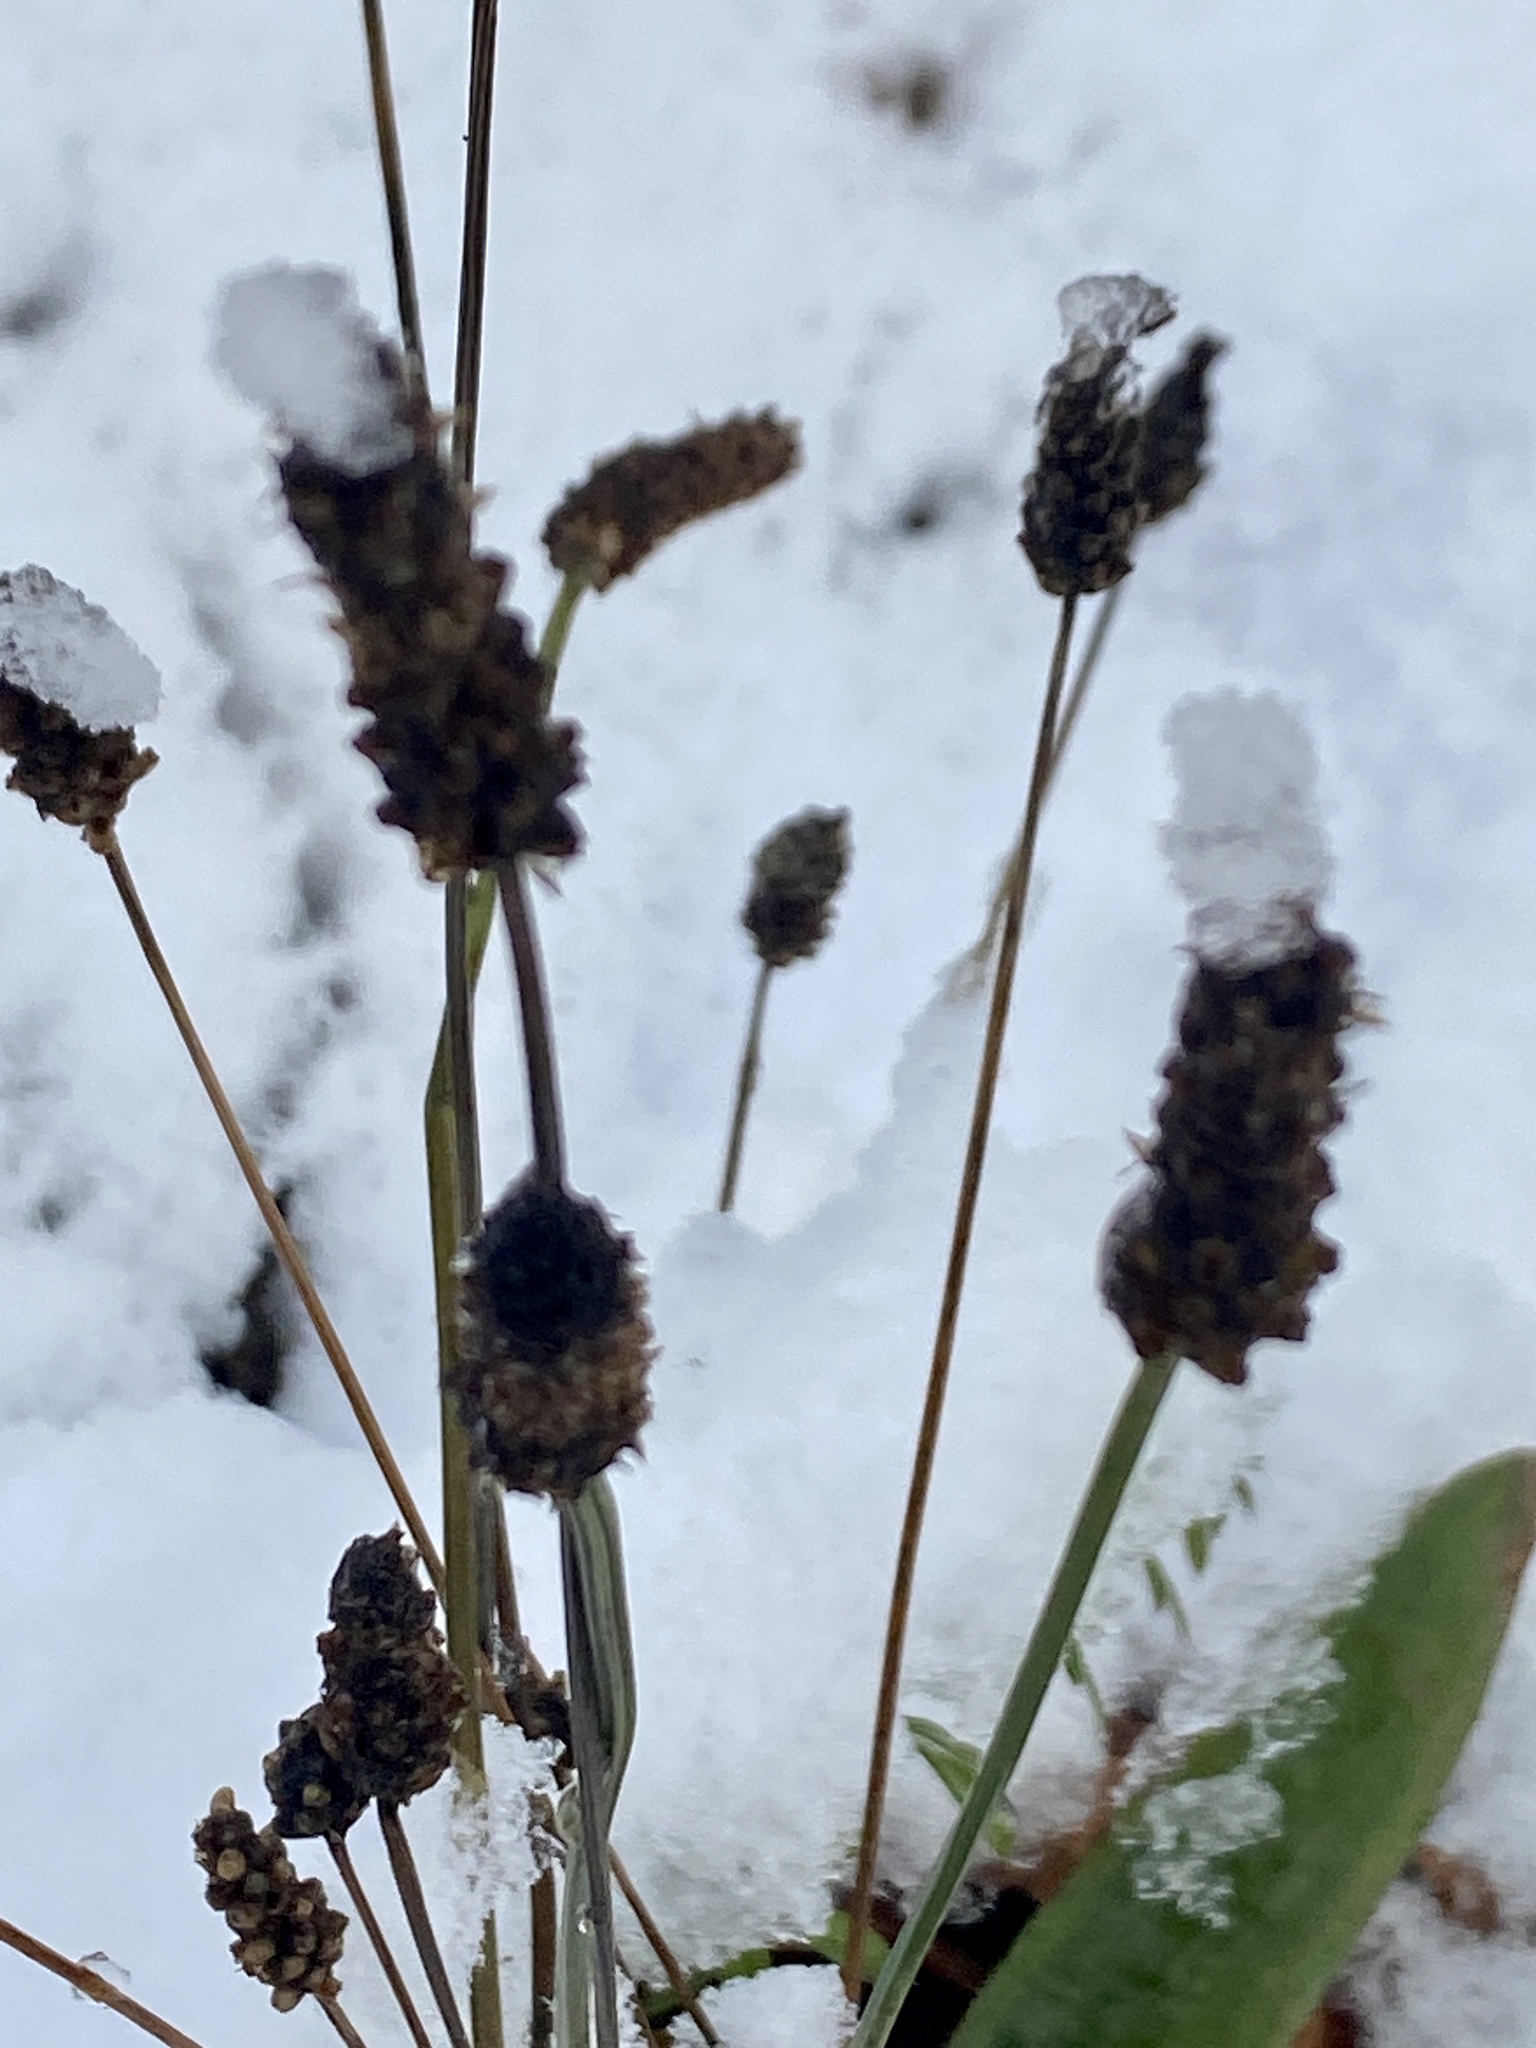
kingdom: Plantae
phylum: Tracheophyta
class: Magnoliopsida
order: Lamiales
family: Plantaginaceae
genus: Plantago
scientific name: Plantago lanceolata
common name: Ribwort plantain
